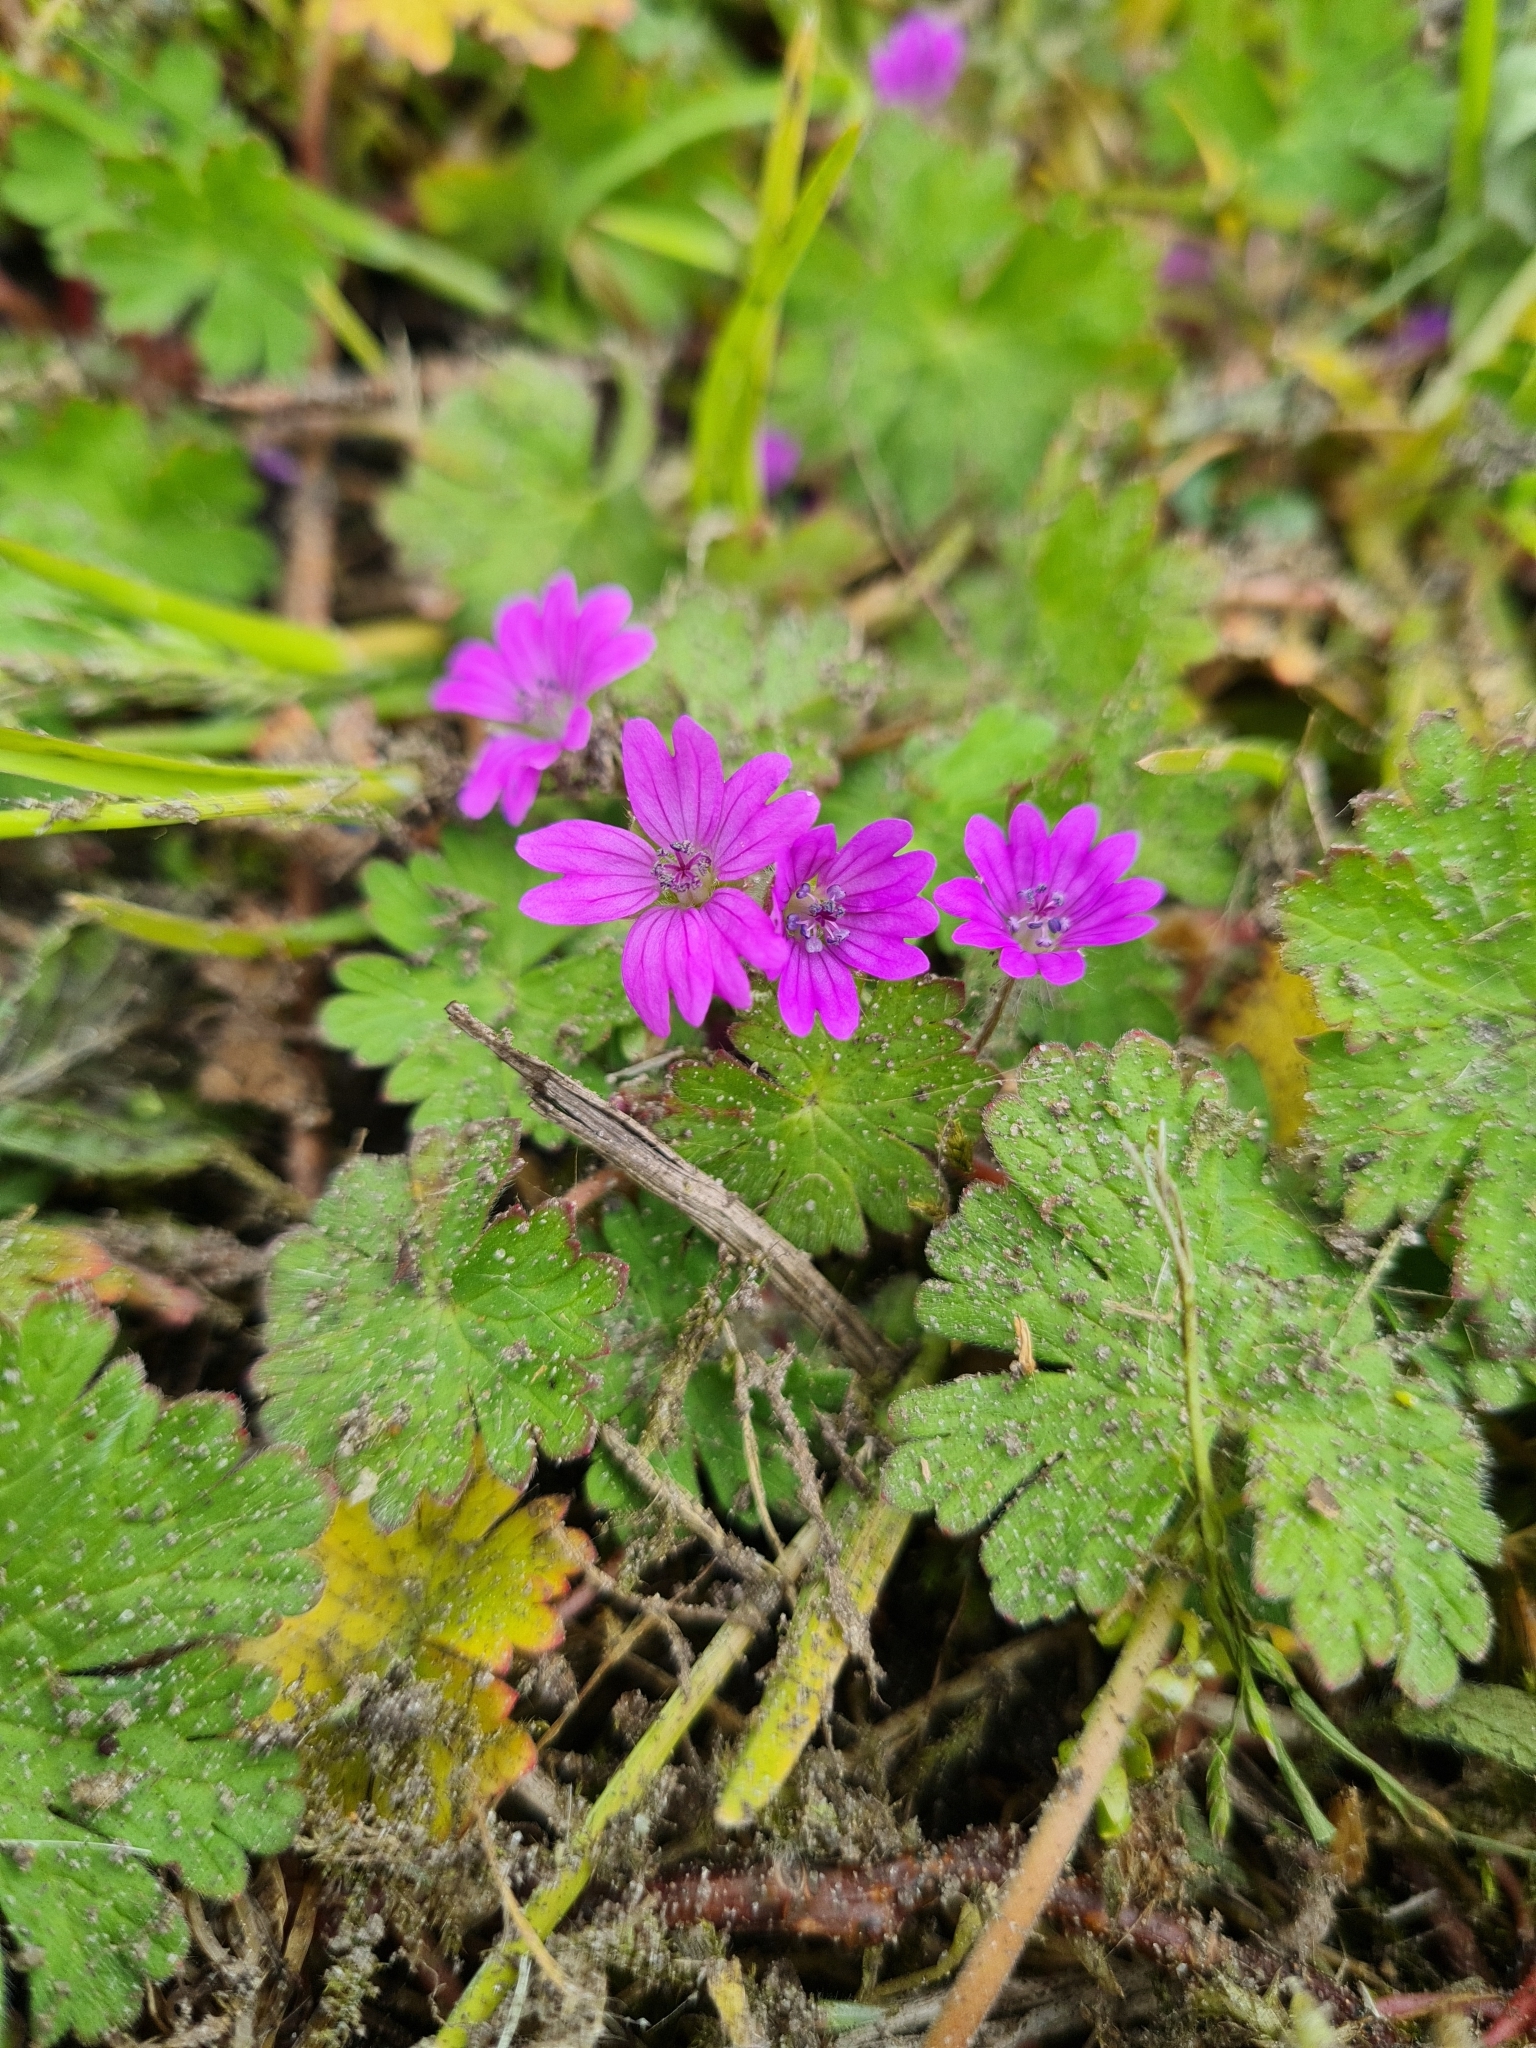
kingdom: Plantae
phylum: Tracheophyta
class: Magnoliopsida
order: Geraniales
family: Geraniaceae
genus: Geranium
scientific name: Geranium molle
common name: Dove's-foot crane's-bill
